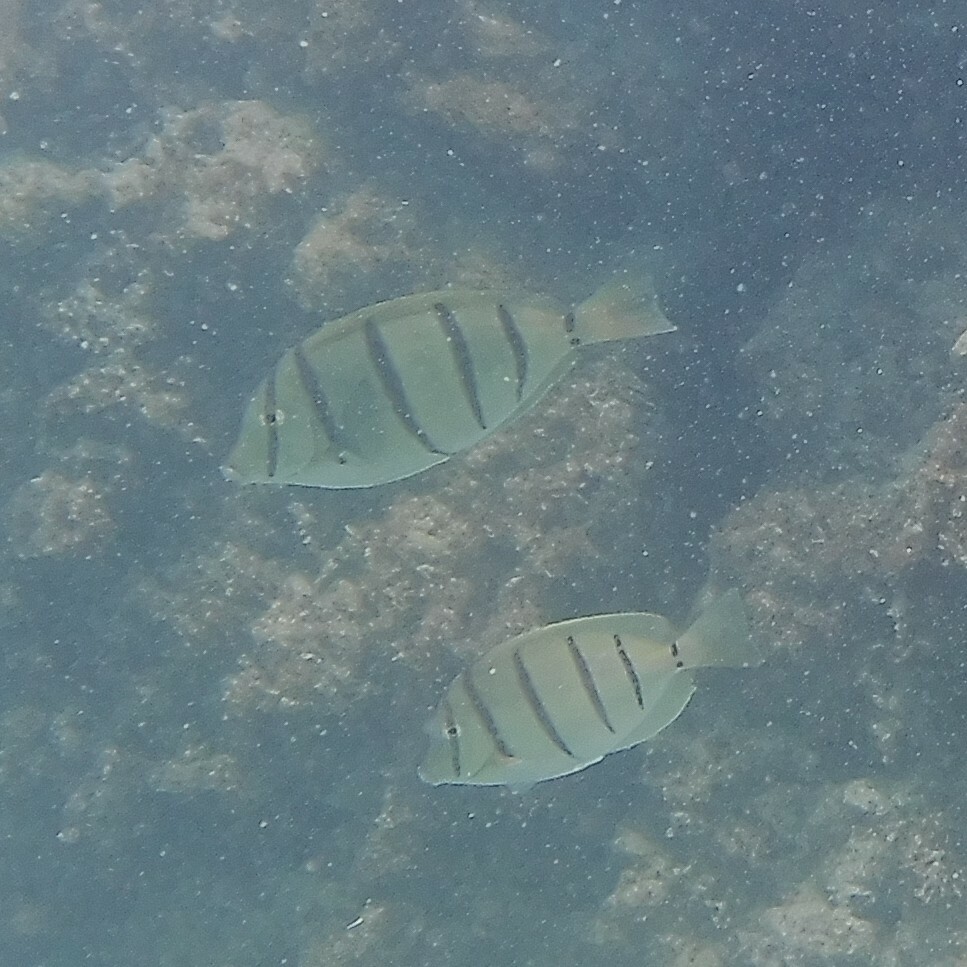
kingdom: Animalia
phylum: Chordata
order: Perciformes
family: Acanthuridae
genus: Acanthurus
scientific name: Acanthurus triostegus
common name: Convict surgeonfish
